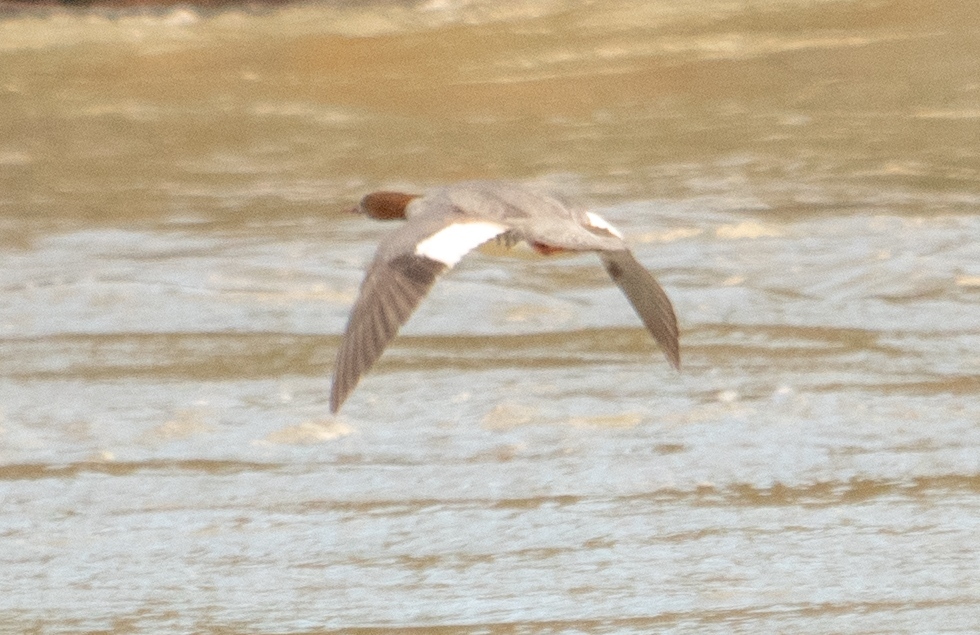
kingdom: Animalia
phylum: Chordata
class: Aves
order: Anseriformes
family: Anatidae
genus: Mergus
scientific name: Mergus merganser
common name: Common merganser
